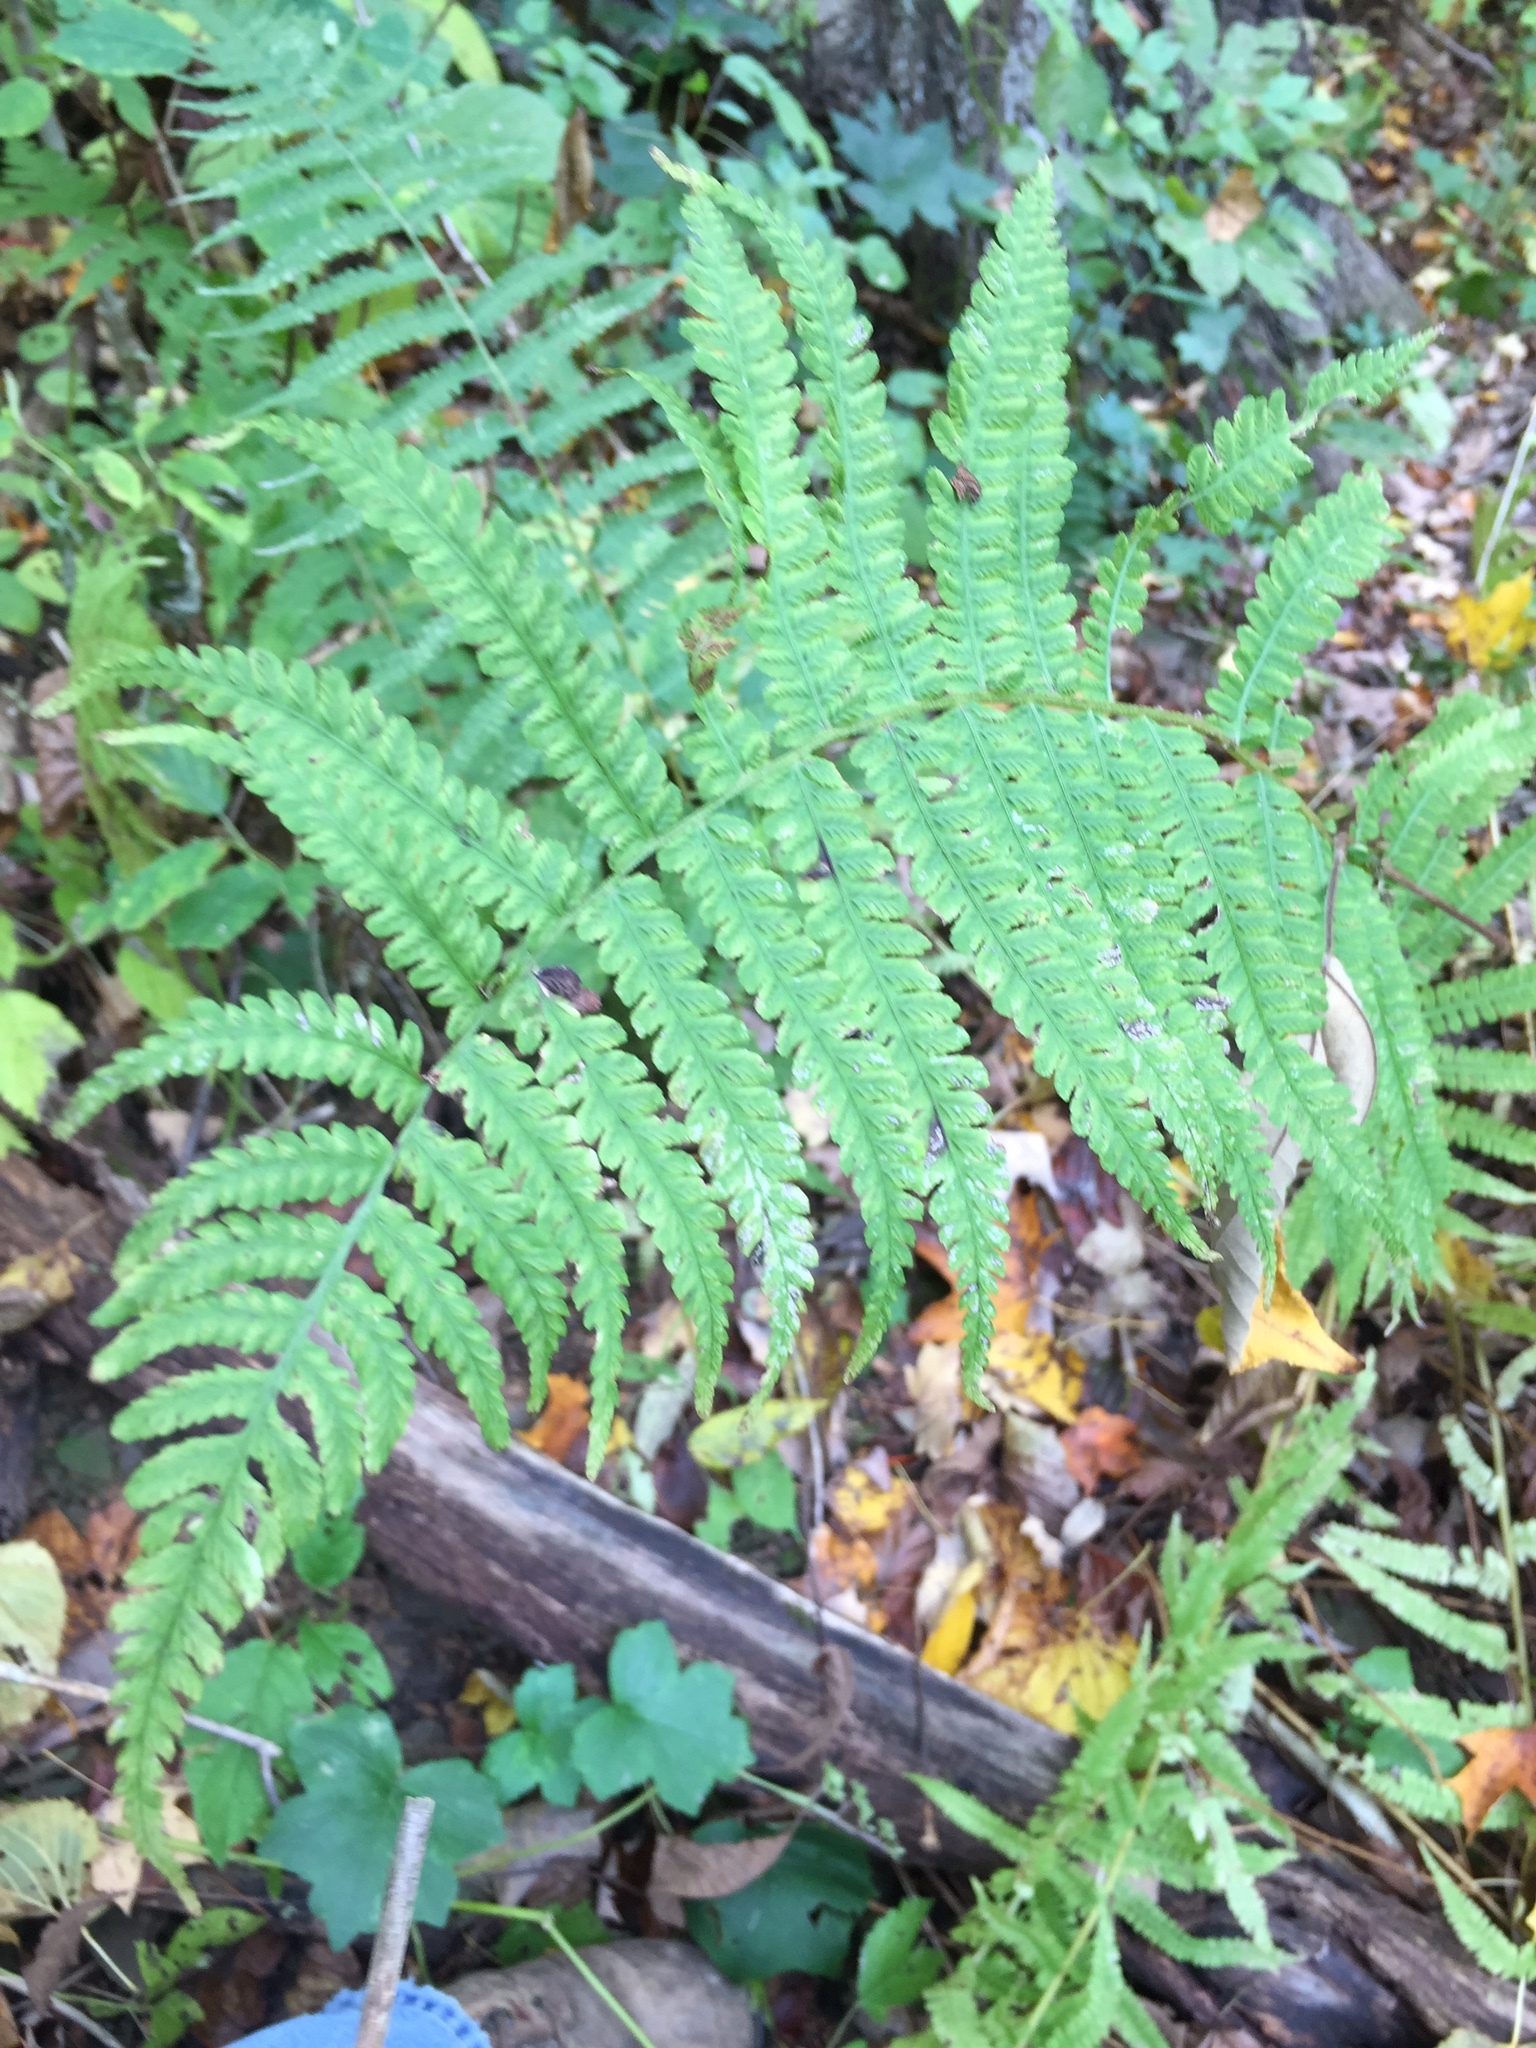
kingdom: Plantae
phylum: Tracheophyta
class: Polypodiopsida
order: Polypodiales
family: Athyriaceae
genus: Deparia
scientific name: Deparia acrostichoides
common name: Silver false spleenwort
